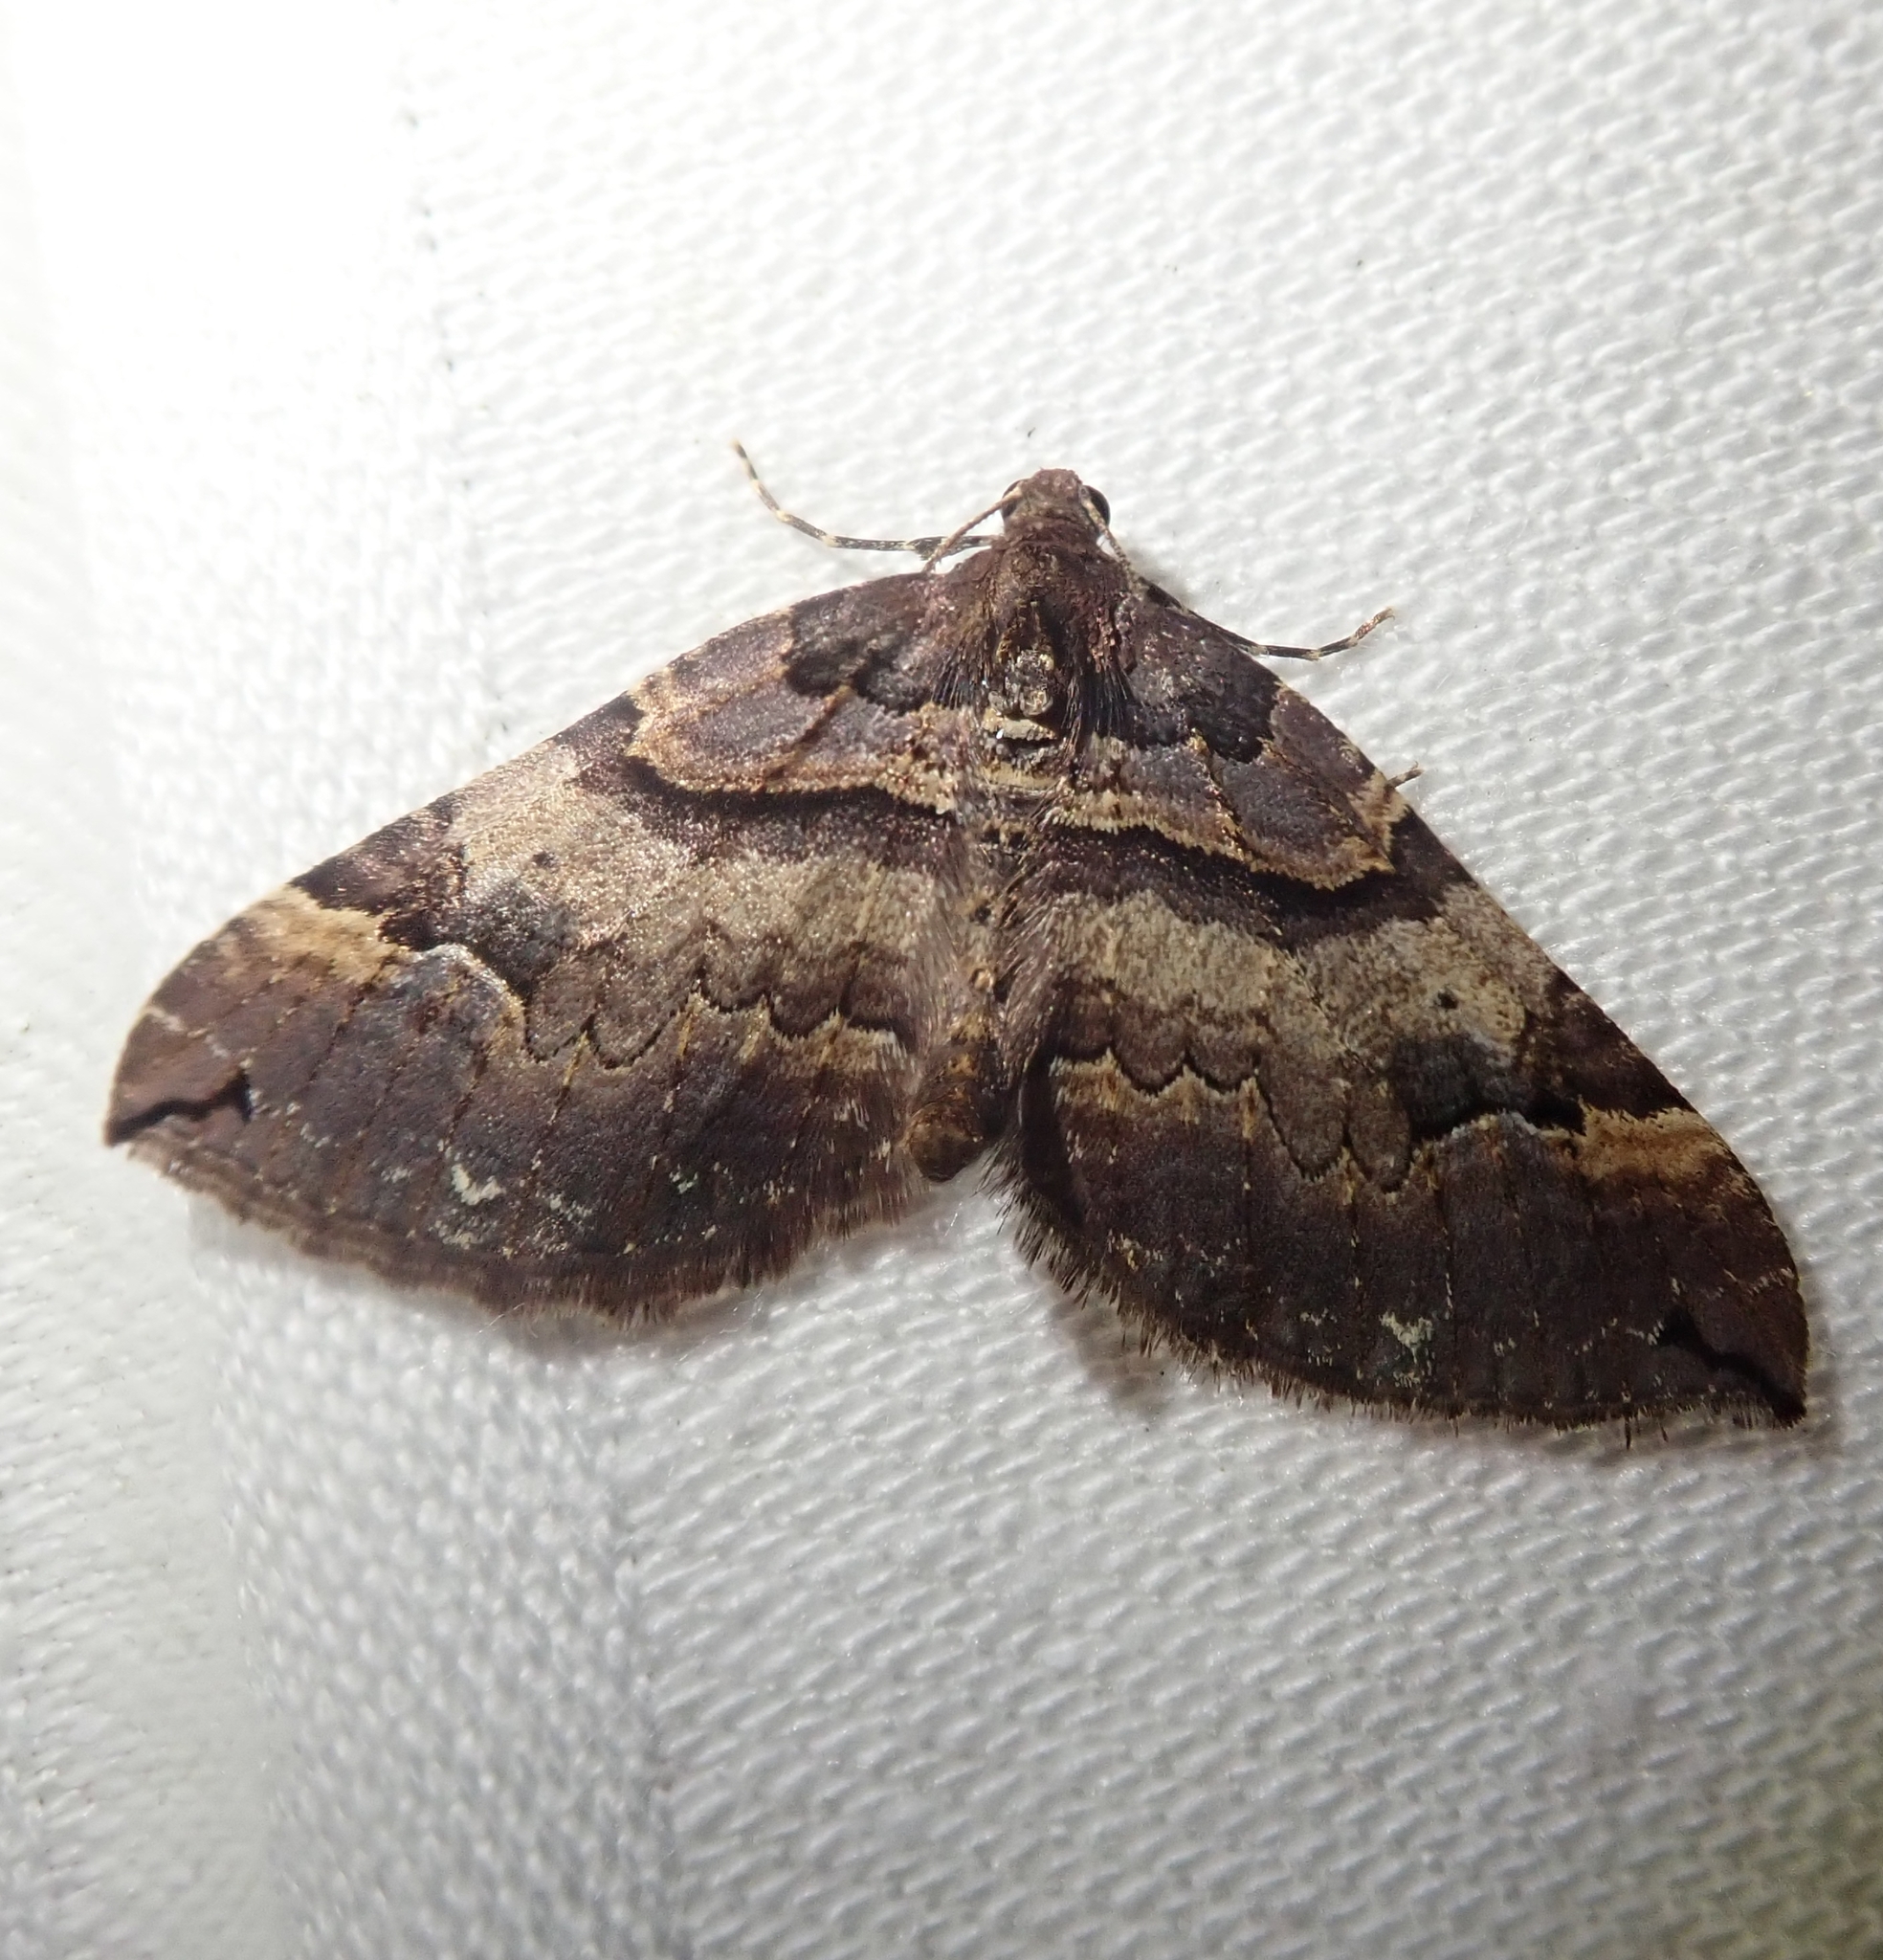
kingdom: Animalia
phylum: Arthropoda
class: Insecta
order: Lepidoptera
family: Geometridae
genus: Anticlea
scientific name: Anticlea badiata
